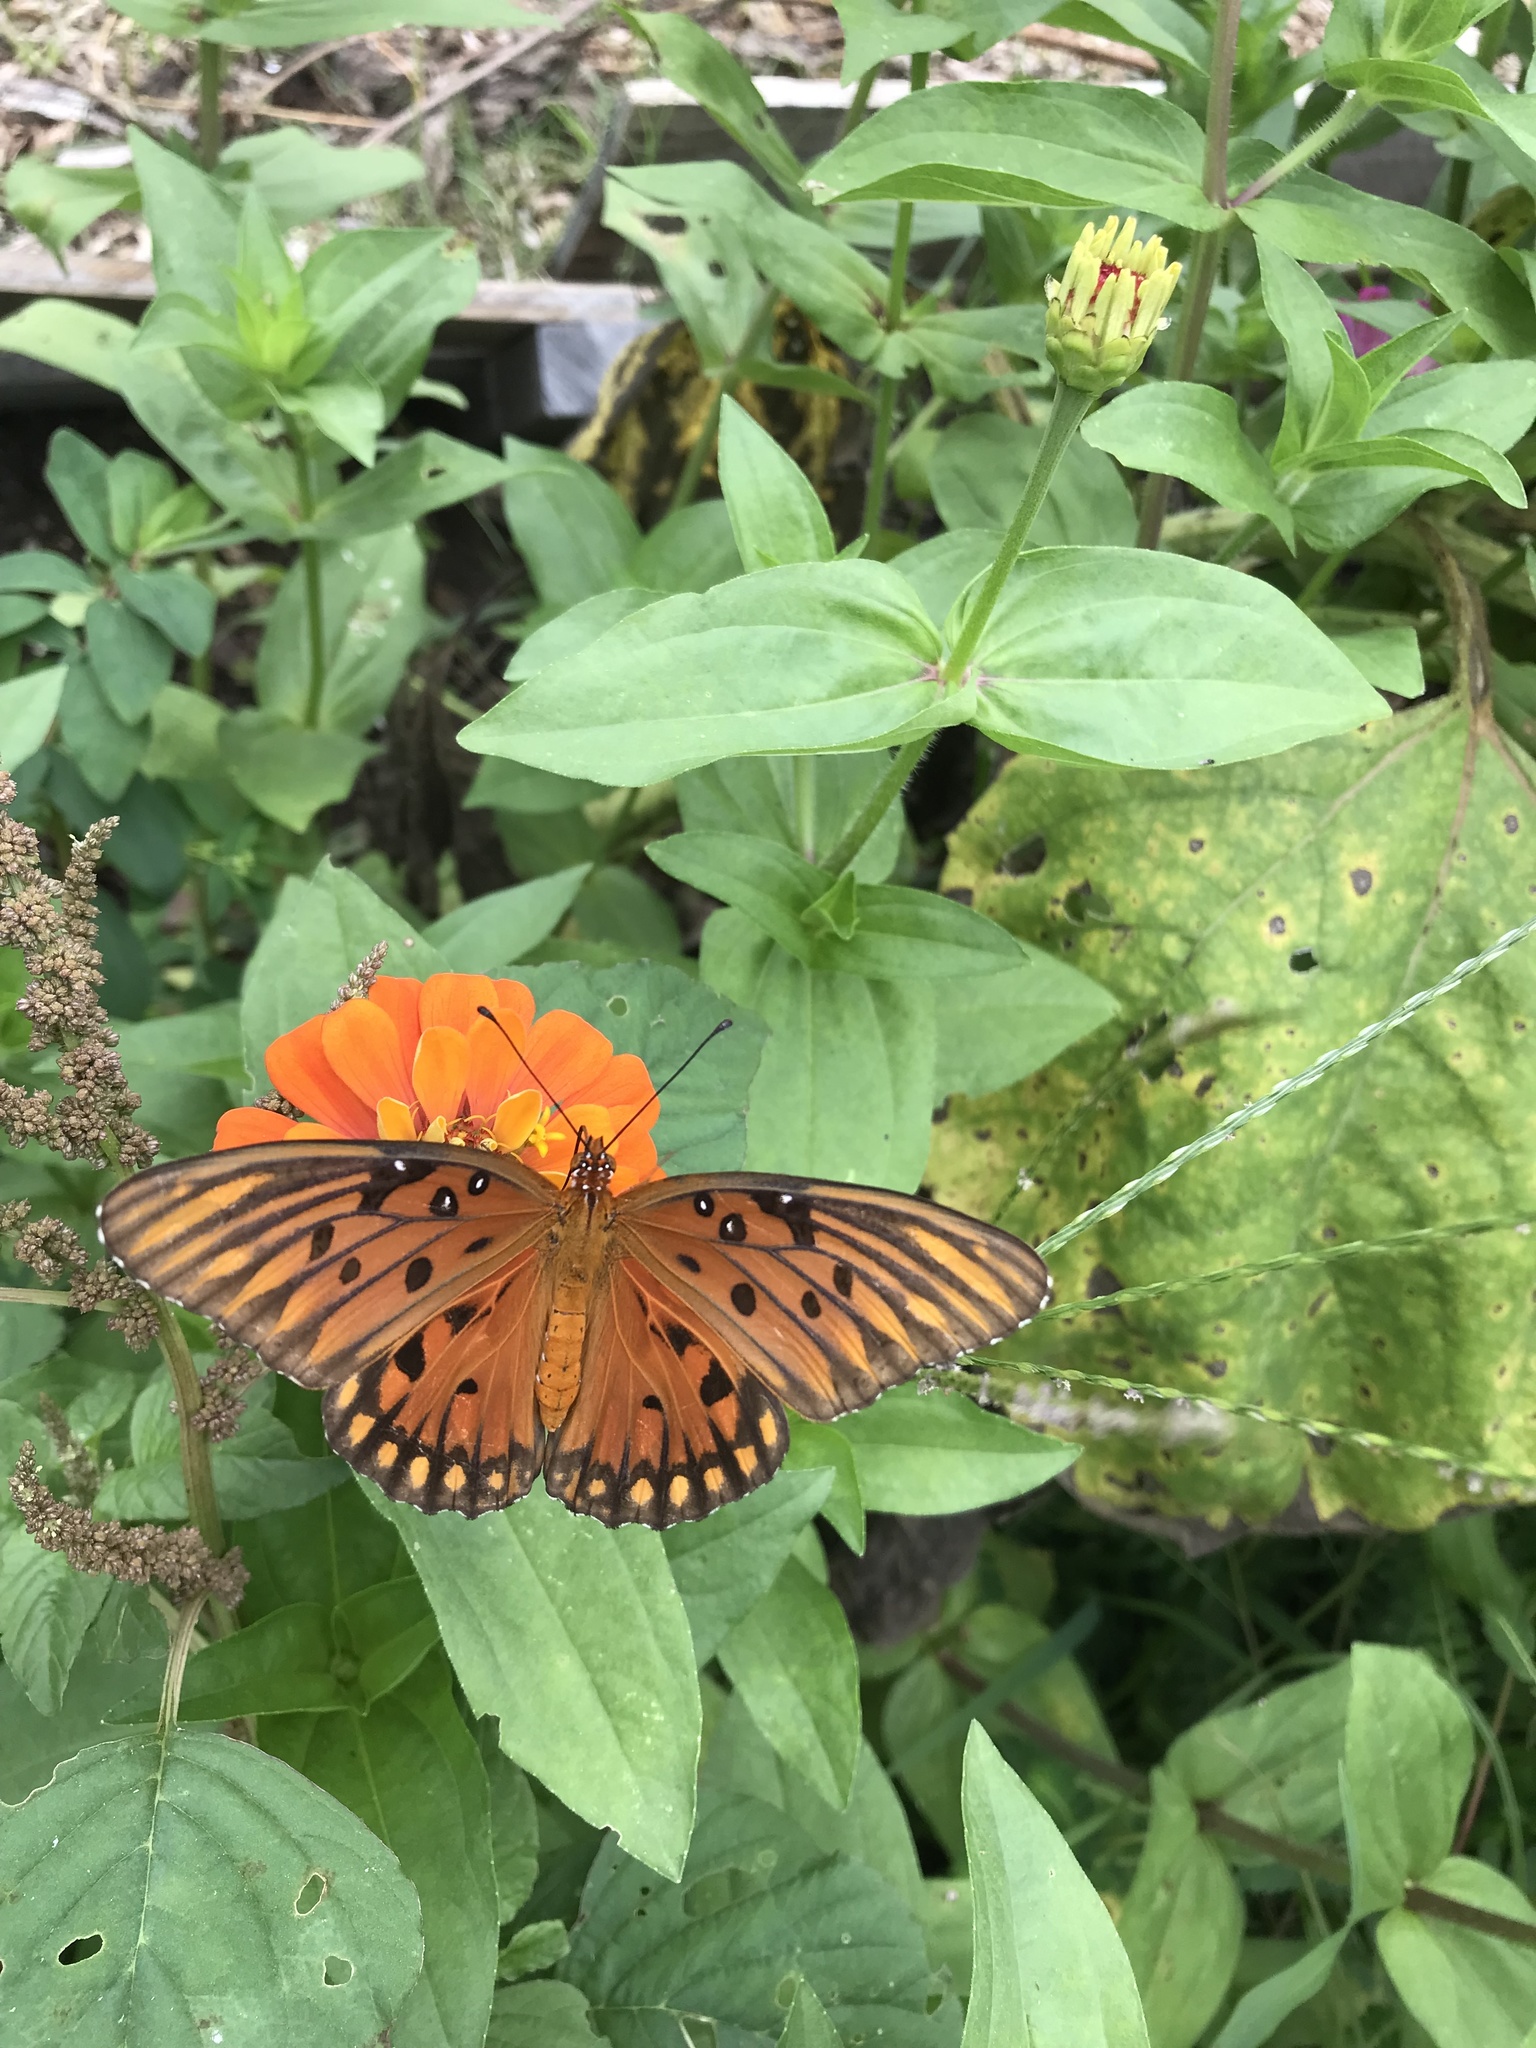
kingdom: Animalia
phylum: Arthropoda
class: Insecta
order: Lepidoptera
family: Nymphalidae
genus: Dione
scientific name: Dione vanillae
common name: Gulf fritillary
